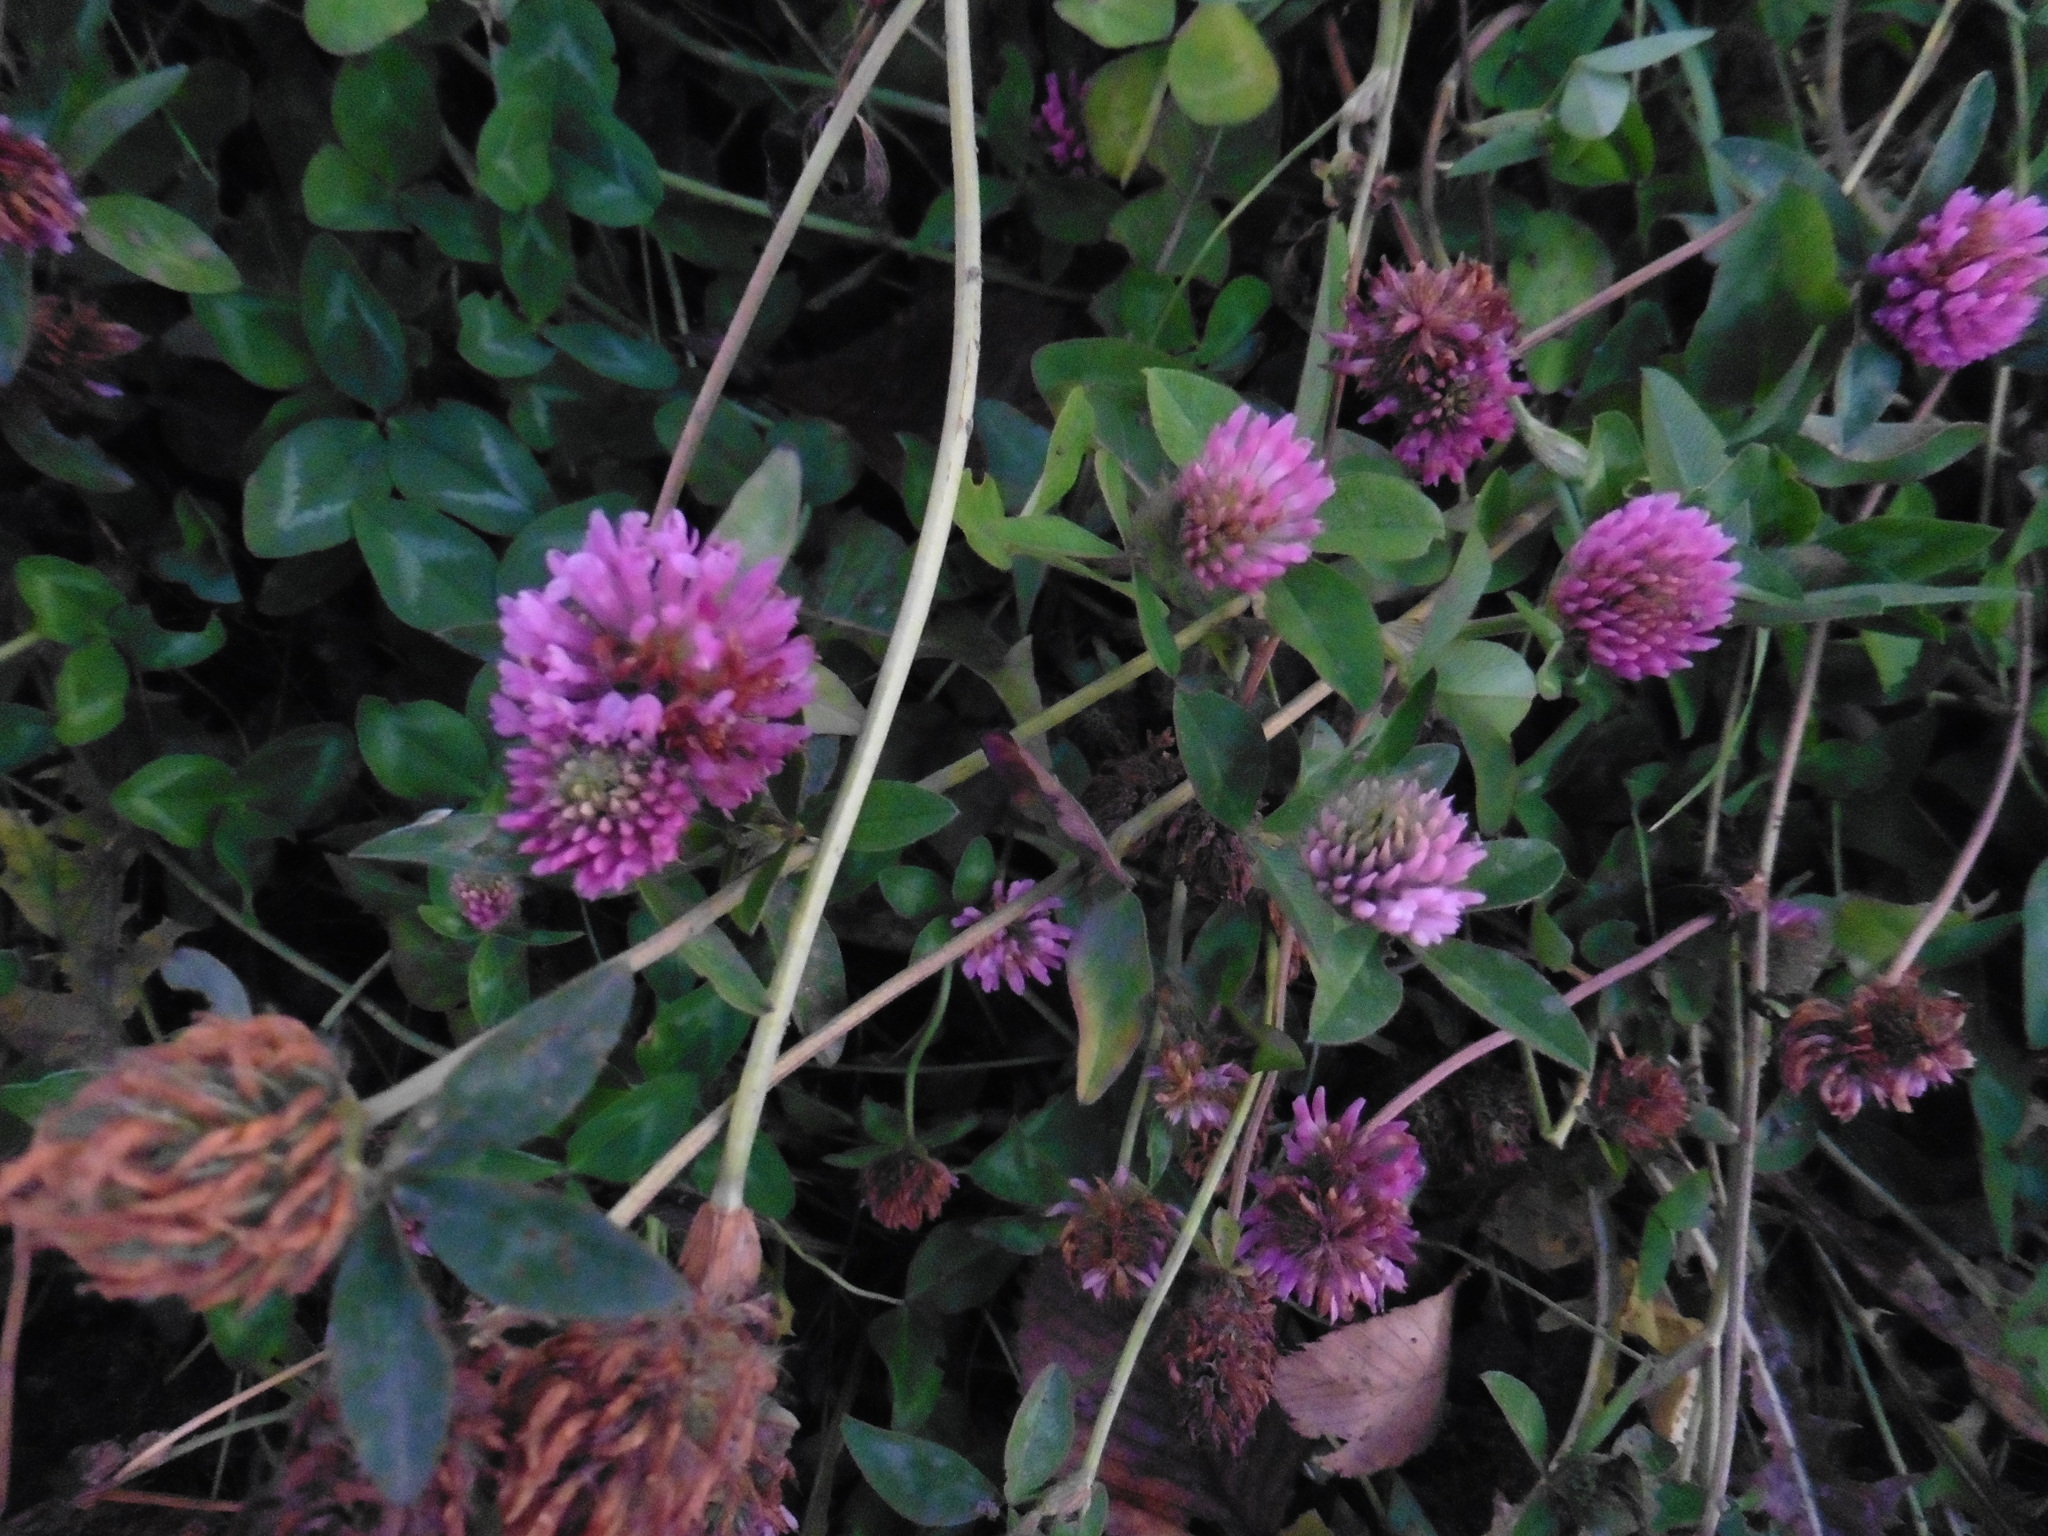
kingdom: Plantae
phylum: Tracheophyta
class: Magnoliopsida
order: Fabales
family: Fabaceae
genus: Trifolium
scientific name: Trifolium pratense
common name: Red clover
